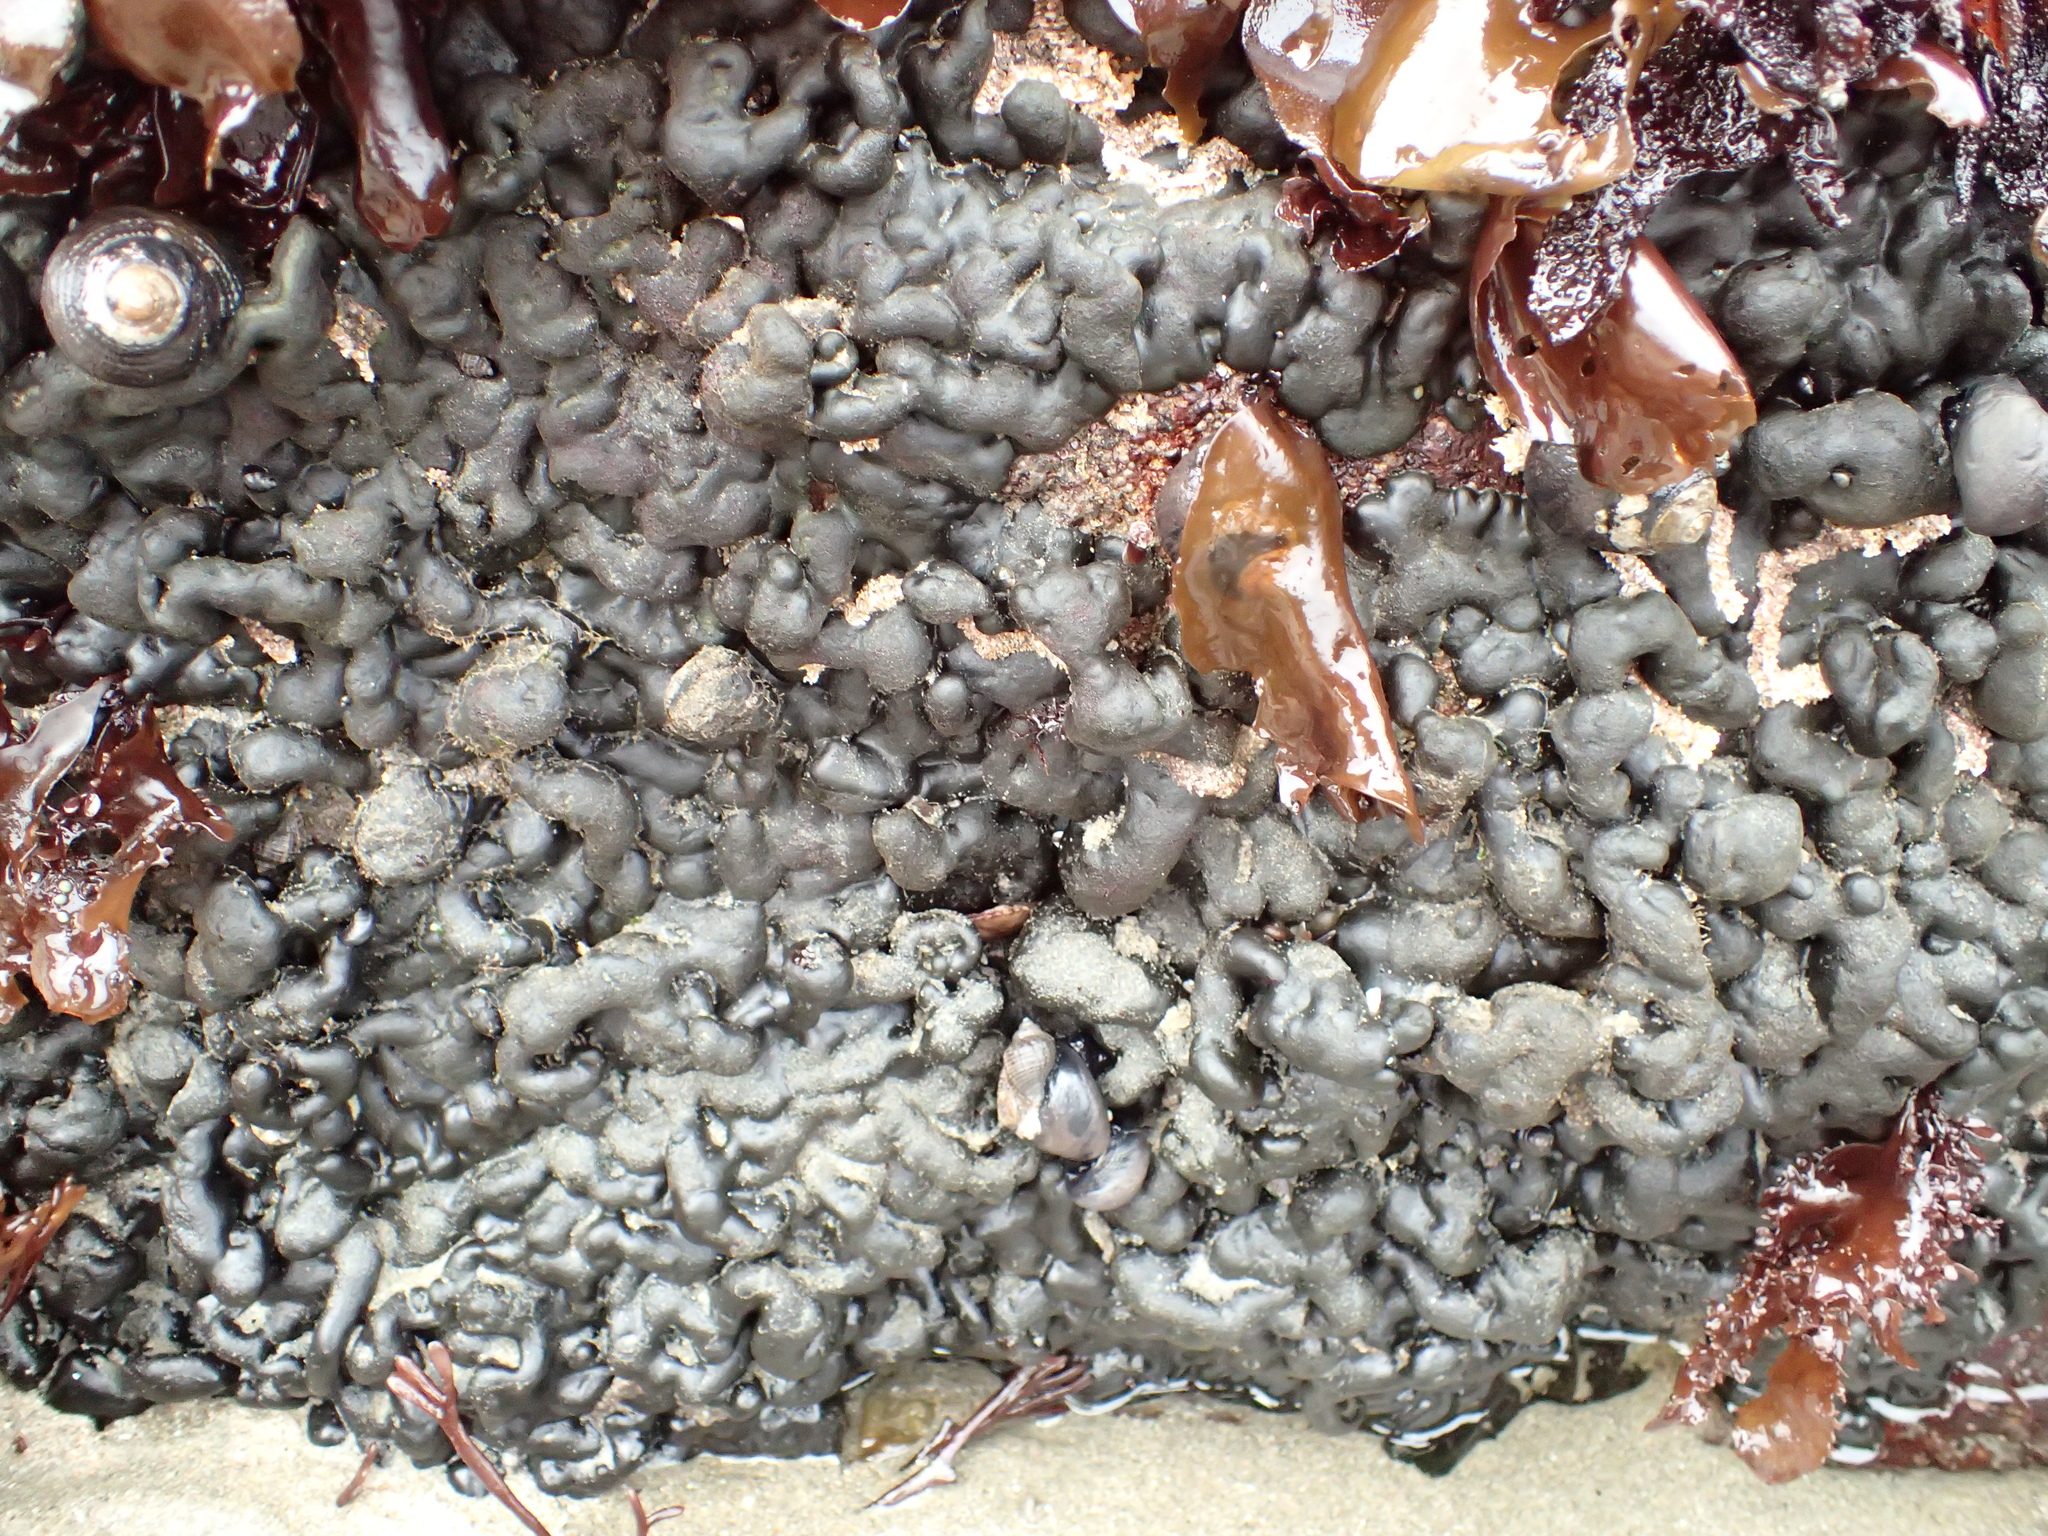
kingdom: Plantae
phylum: Chlorophyta
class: Ulvophyceae
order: Bryopsidales
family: Codiaceae
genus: Codium
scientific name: Codium setchellii
